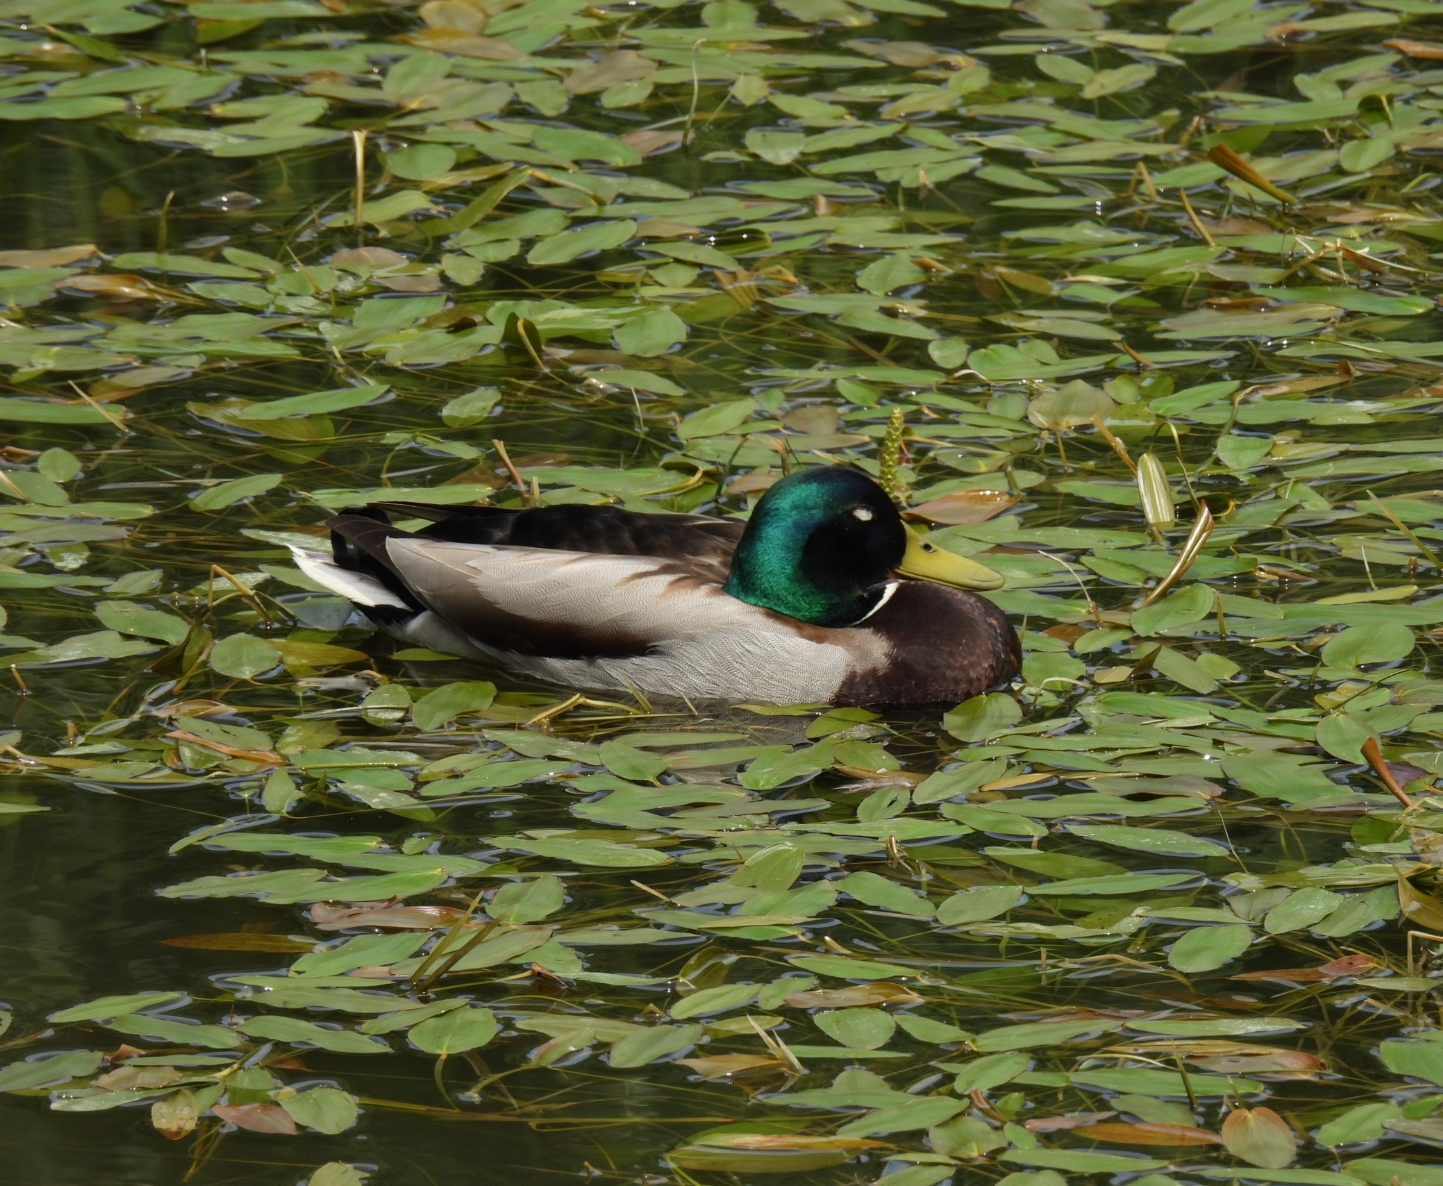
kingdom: Animalia
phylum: Chordata
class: Aves
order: Anseriformes
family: Anatidae
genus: Anas
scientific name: Anas platyrhynchos
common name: Mallard
